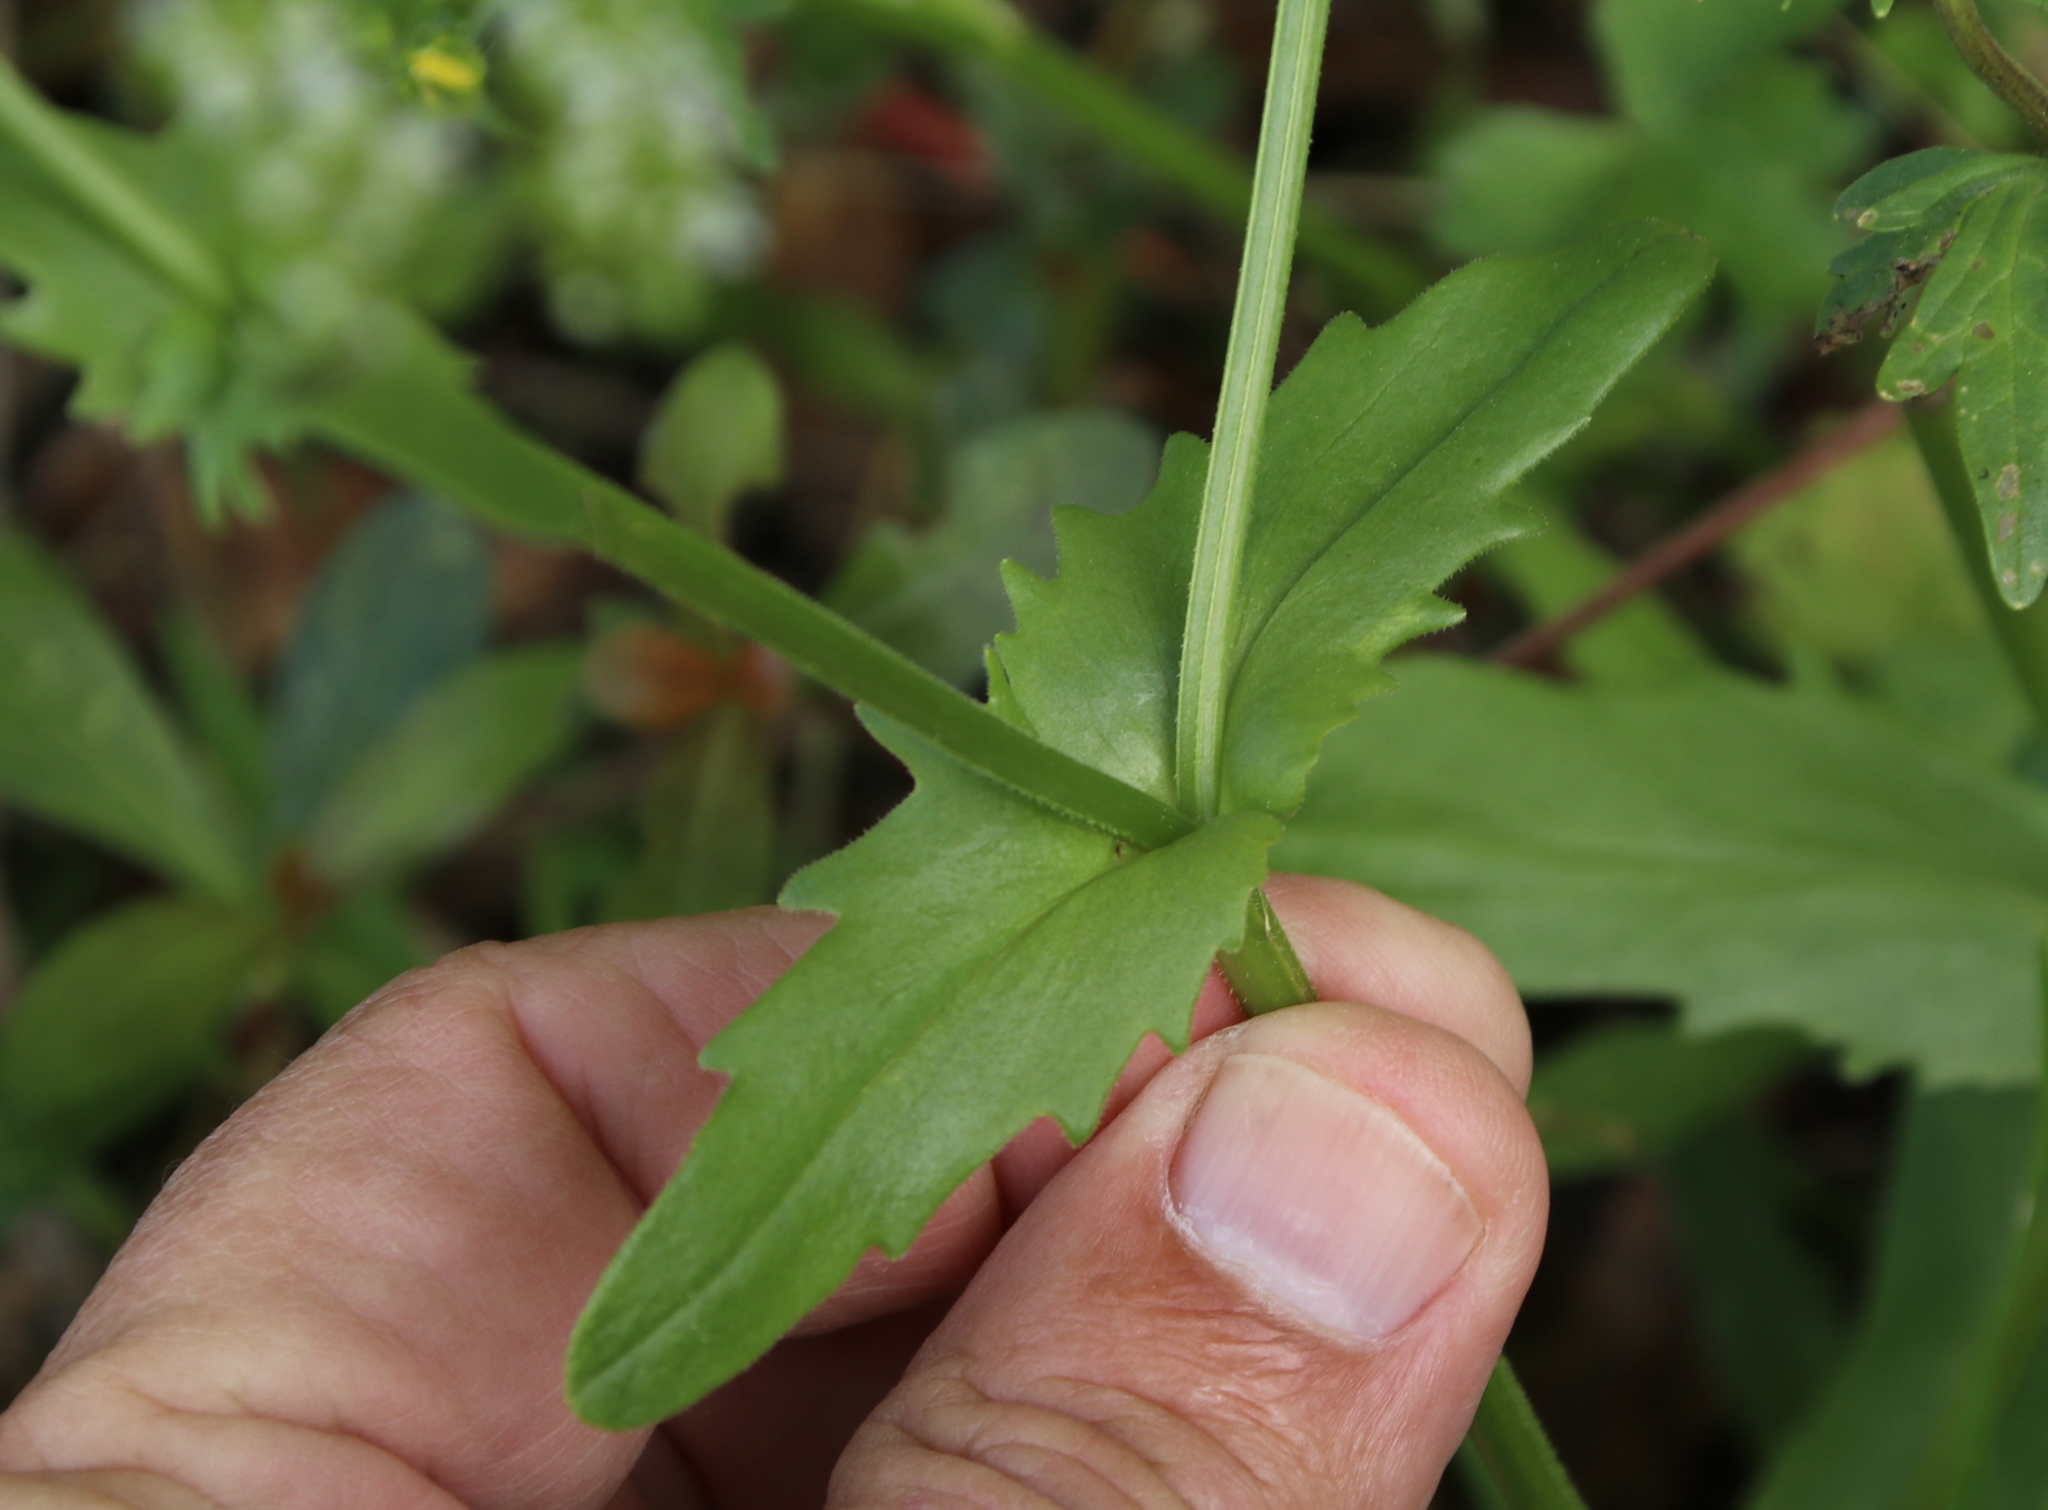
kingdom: Plantae
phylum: Tracheophyta
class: Magnoliopsida
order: Dipsacales
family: Caprifoliaceae
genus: Valerianella
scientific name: Valerianella radiata
